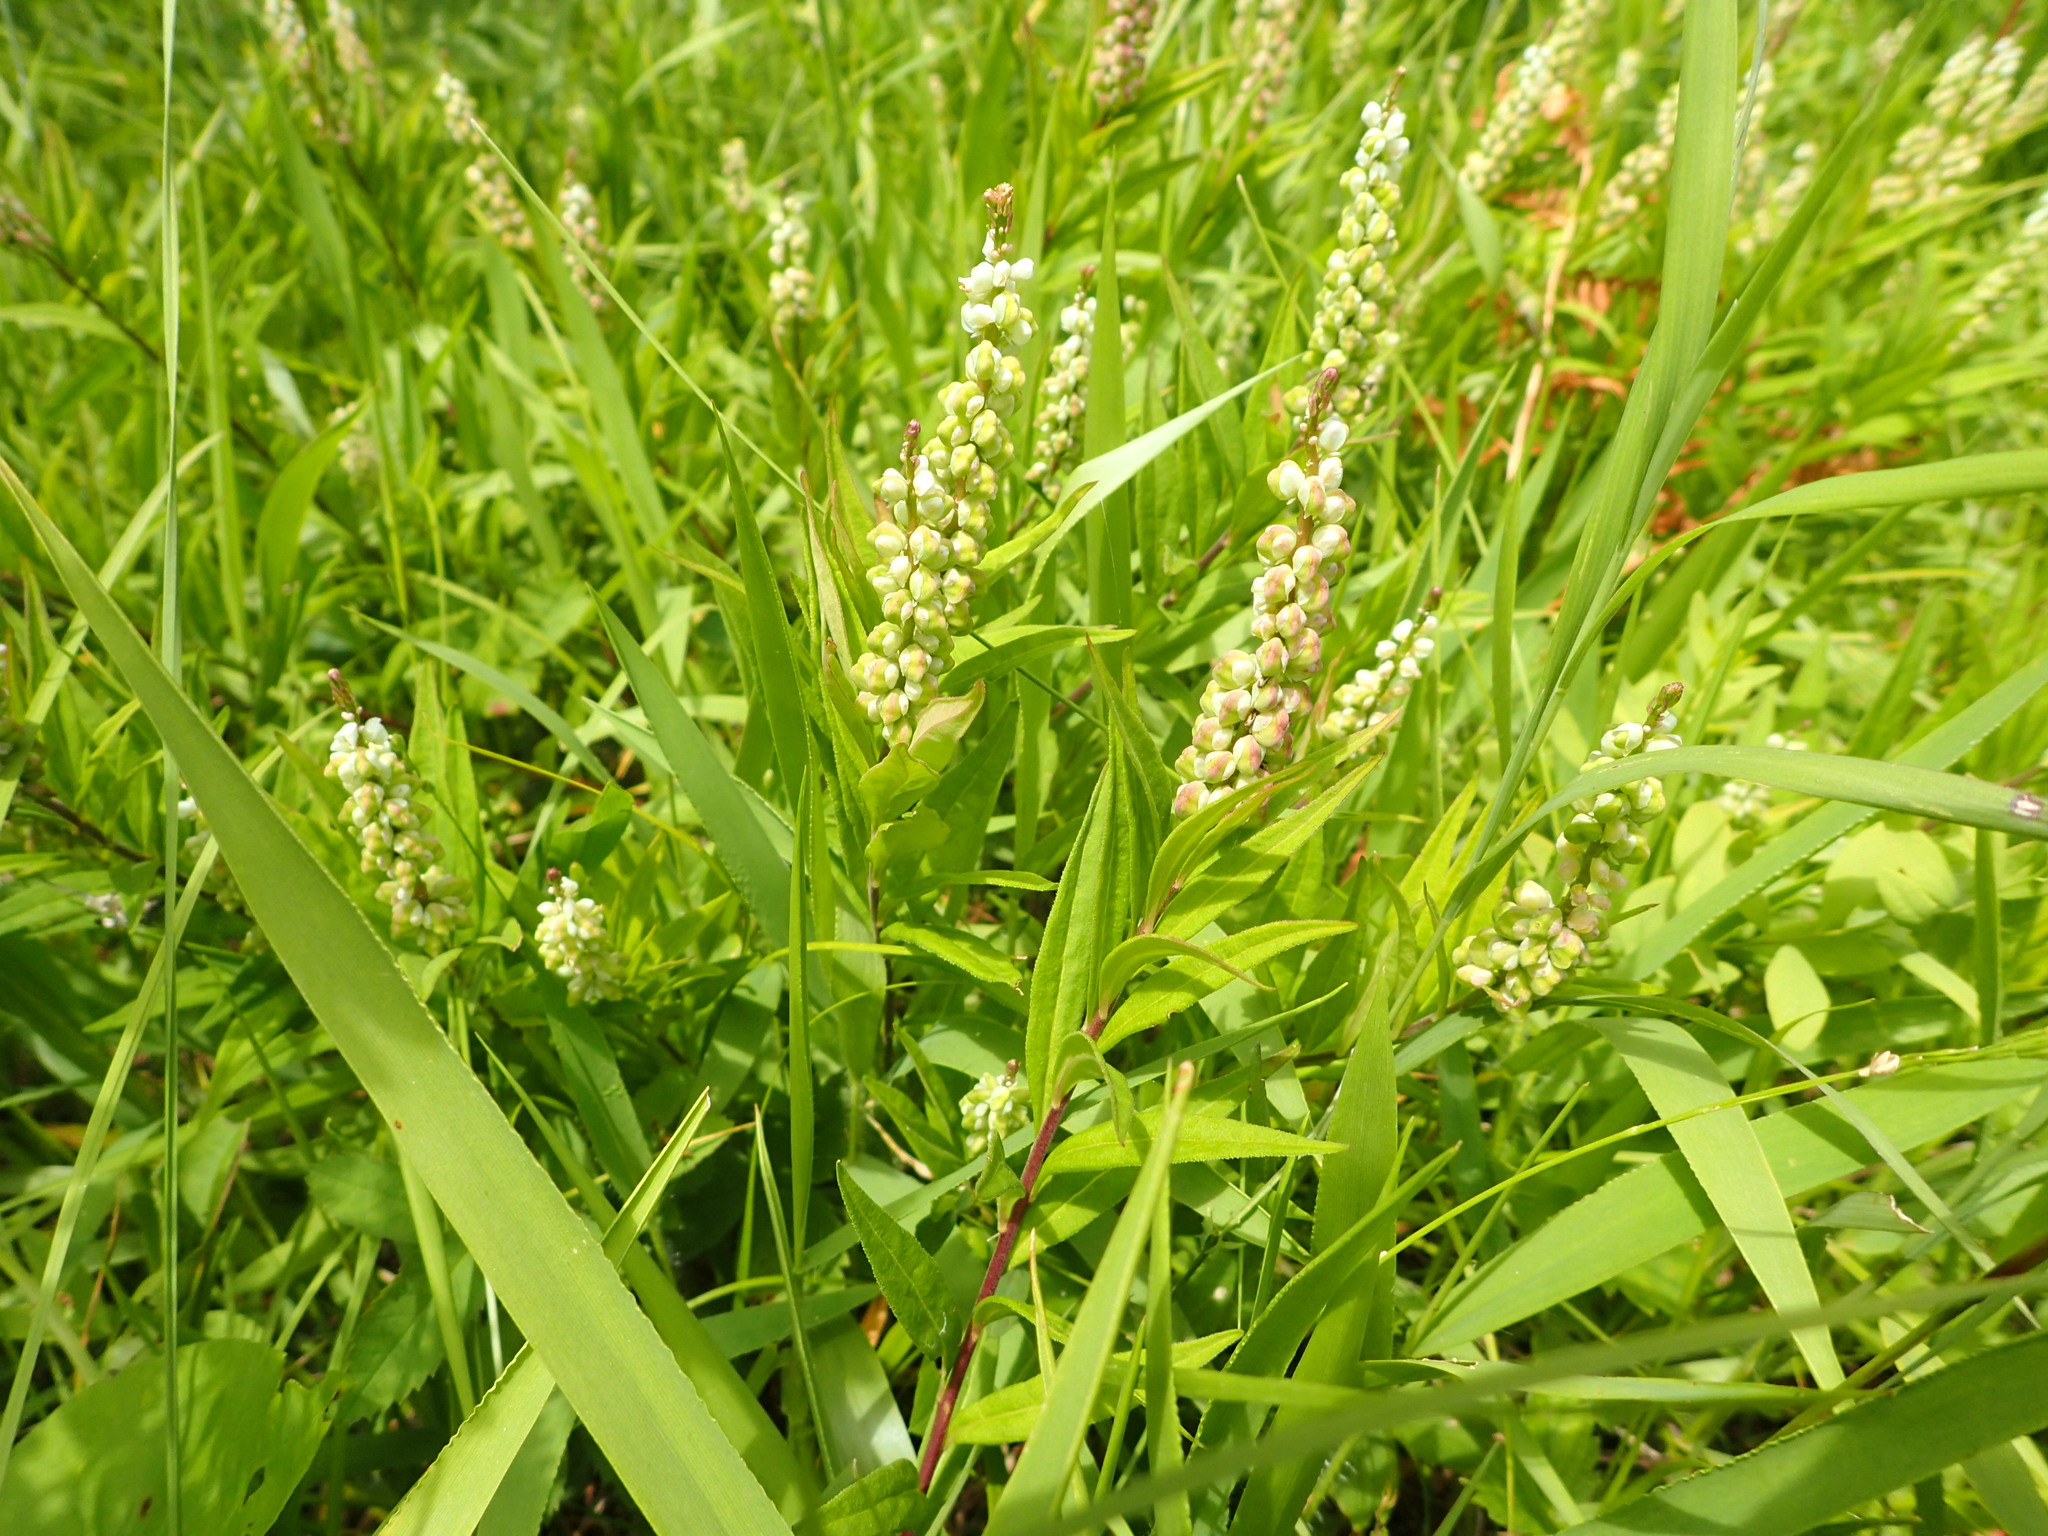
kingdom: Plantae
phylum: Tracheophyta
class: Magnoliopsida
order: Fabales
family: Polygalaceae
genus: Polygala
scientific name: Polygala senega
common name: Seneca snakeroot
